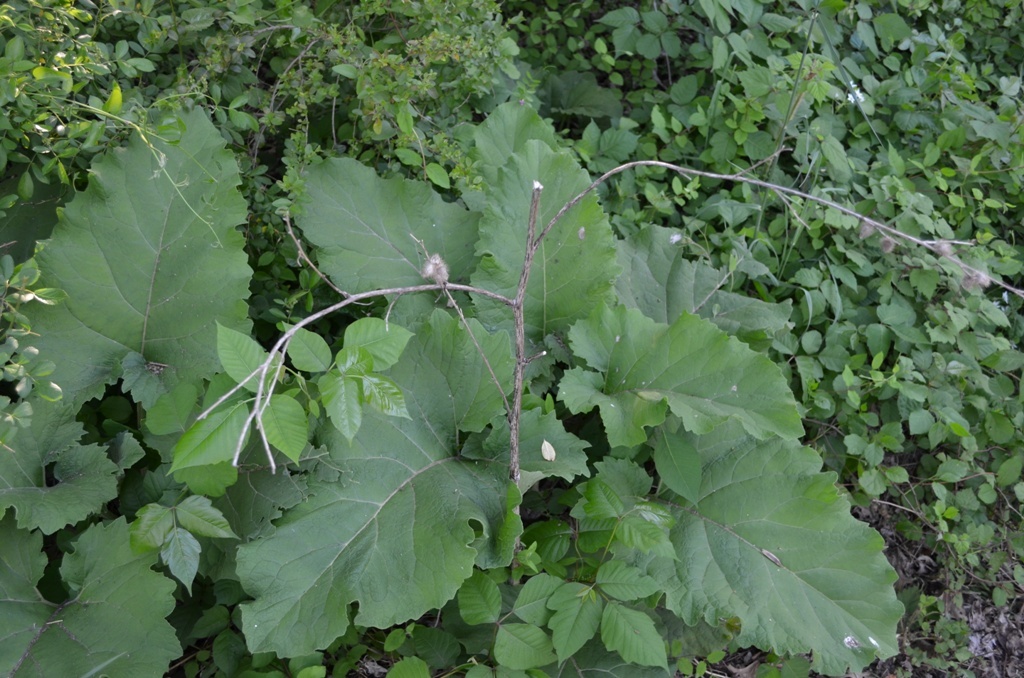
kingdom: Plantae
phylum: Tracheophyta
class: Magnoliopsida
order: Asterales
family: Asteraceae
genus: Arctium
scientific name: Arctium minus
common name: Lesser burdock
